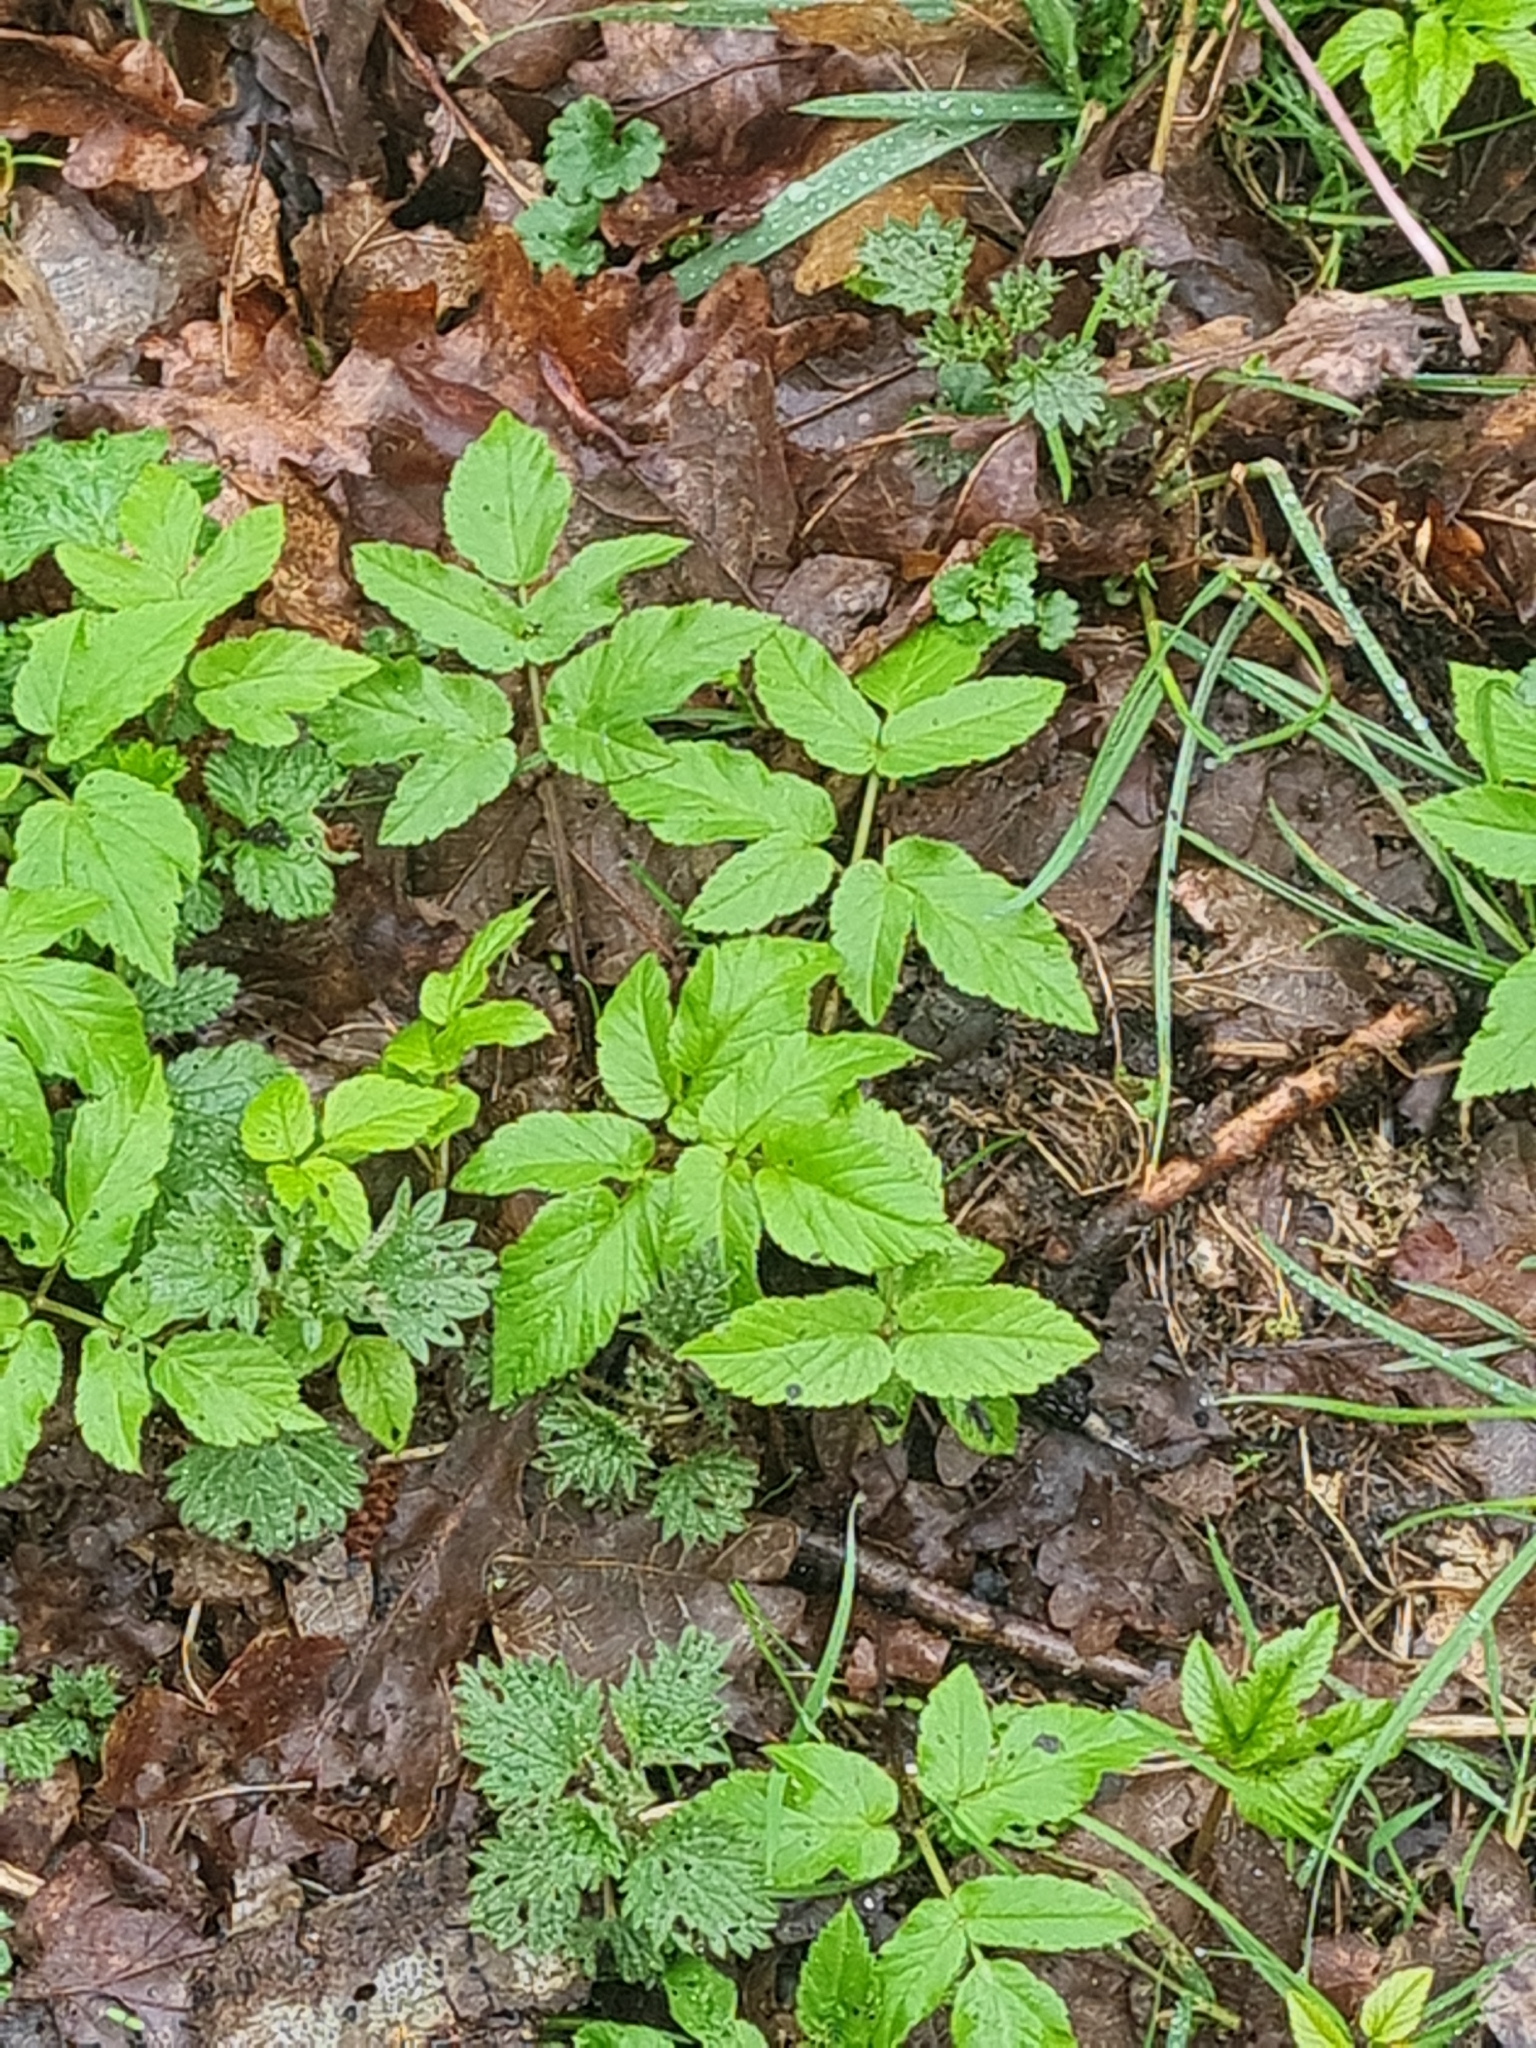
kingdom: Plantae
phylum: Tracheophyta
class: Magnoliopsida
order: Apiales
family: Apiaceae
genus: Aegopodium
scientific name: Aegopodium podagraria
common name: Ground-elder
